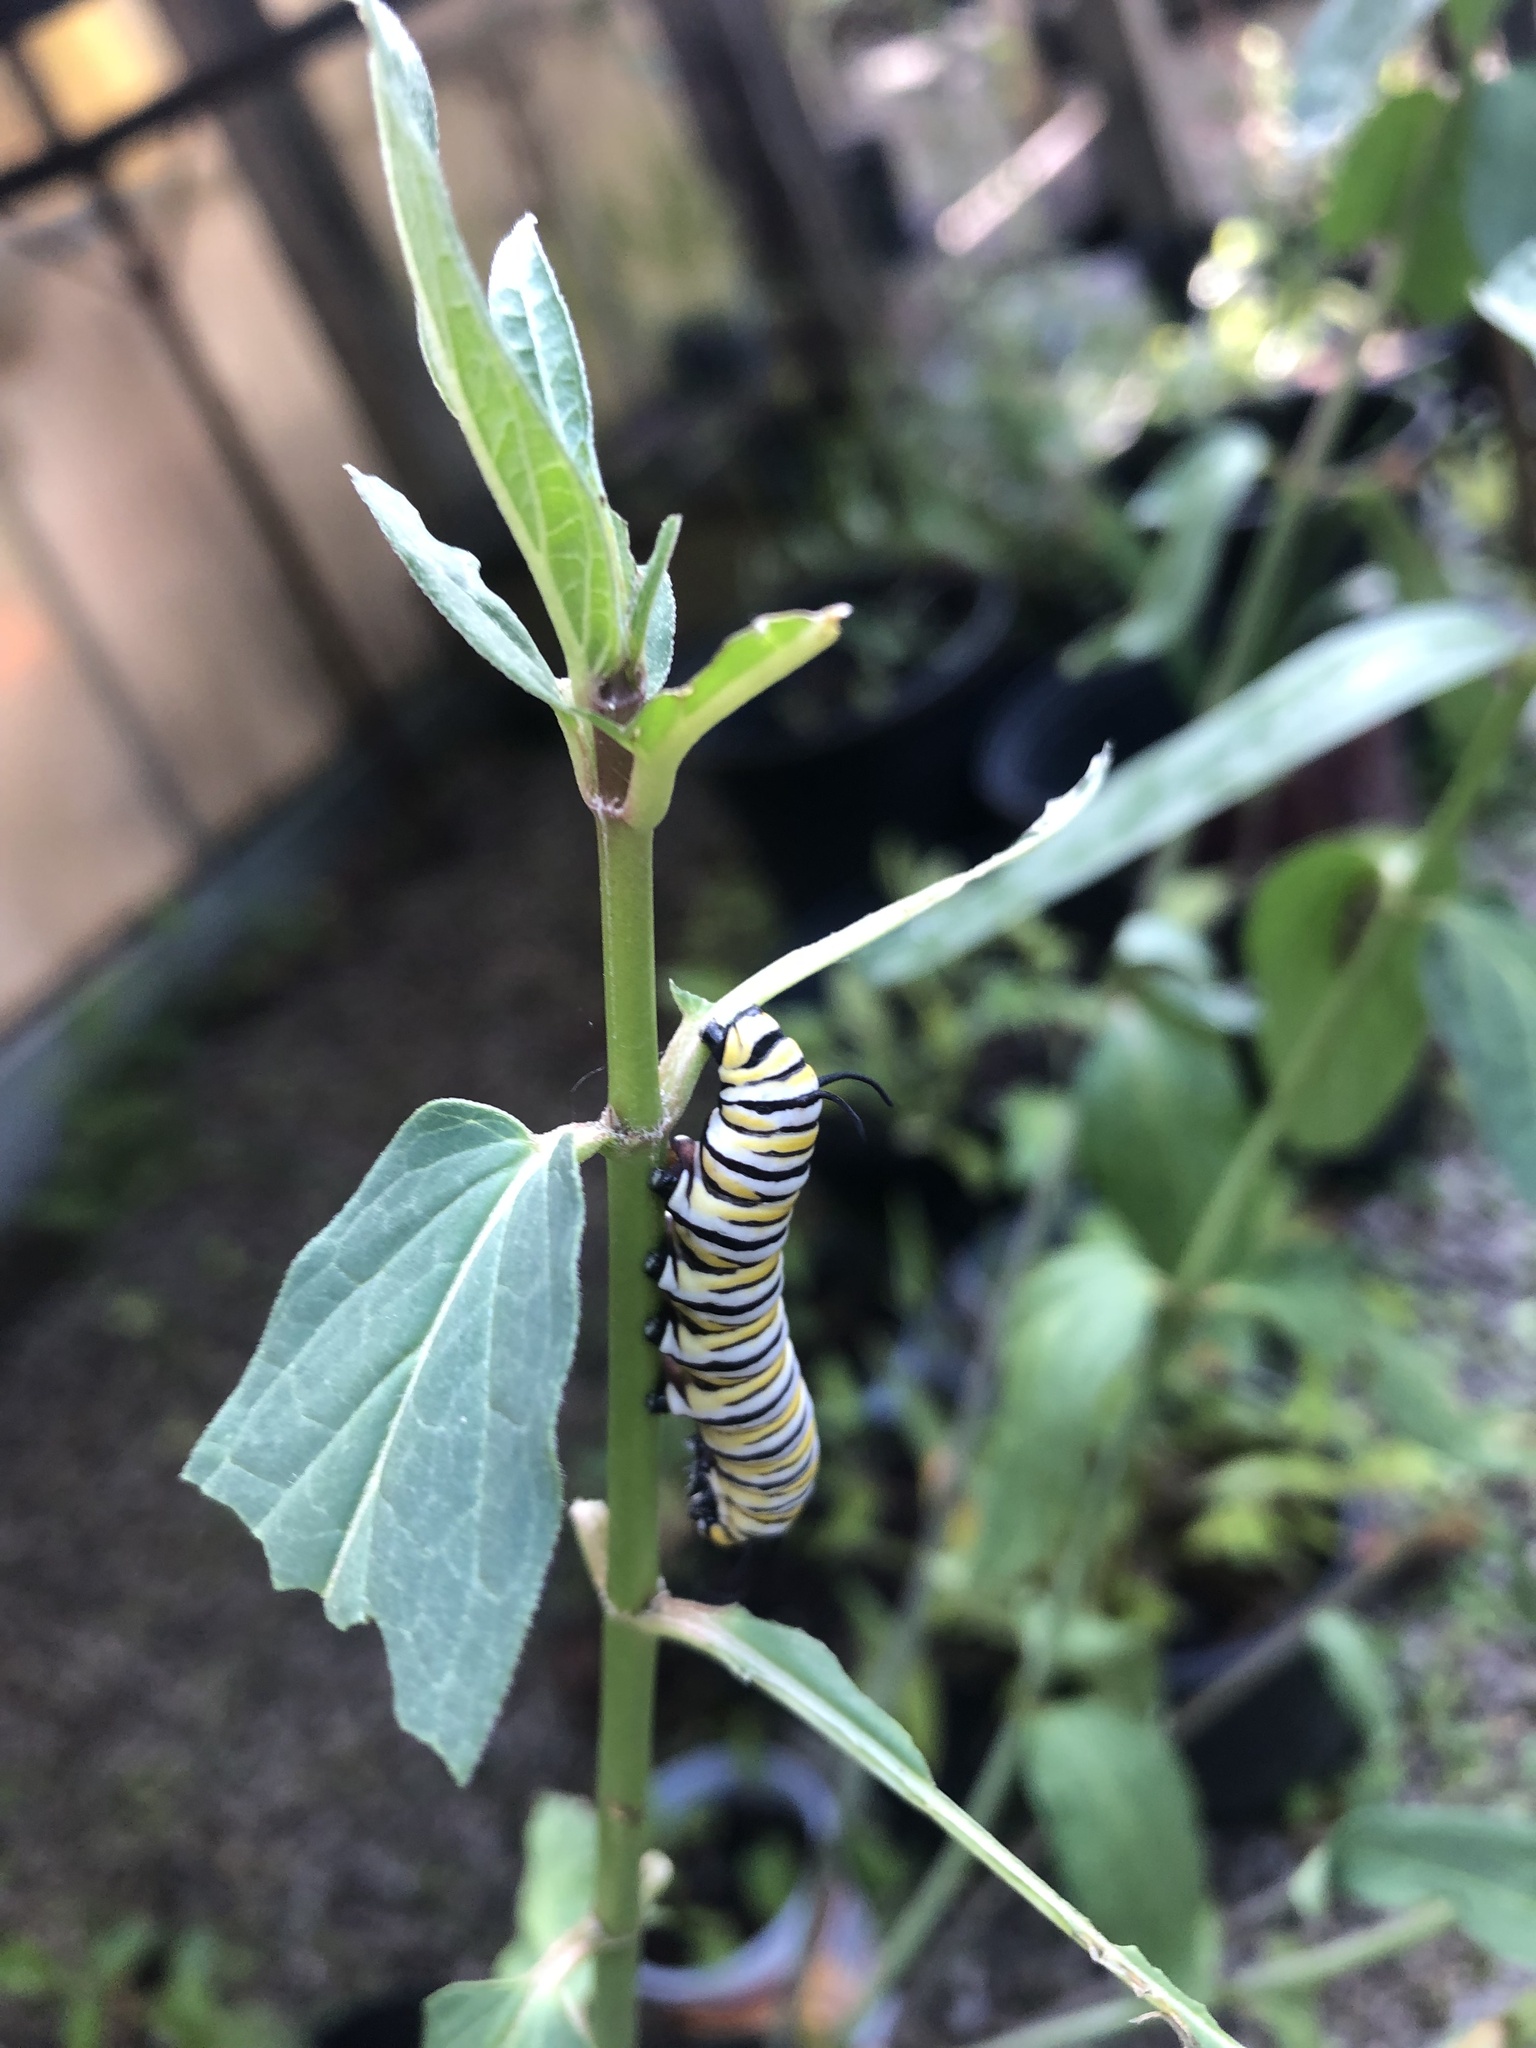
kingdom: Animalia
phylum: Arthropoda
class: Insecta
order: Lepidoptera
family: Nymphalidae
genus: Danaus
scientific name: Danaus plexippus
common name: Monarch
